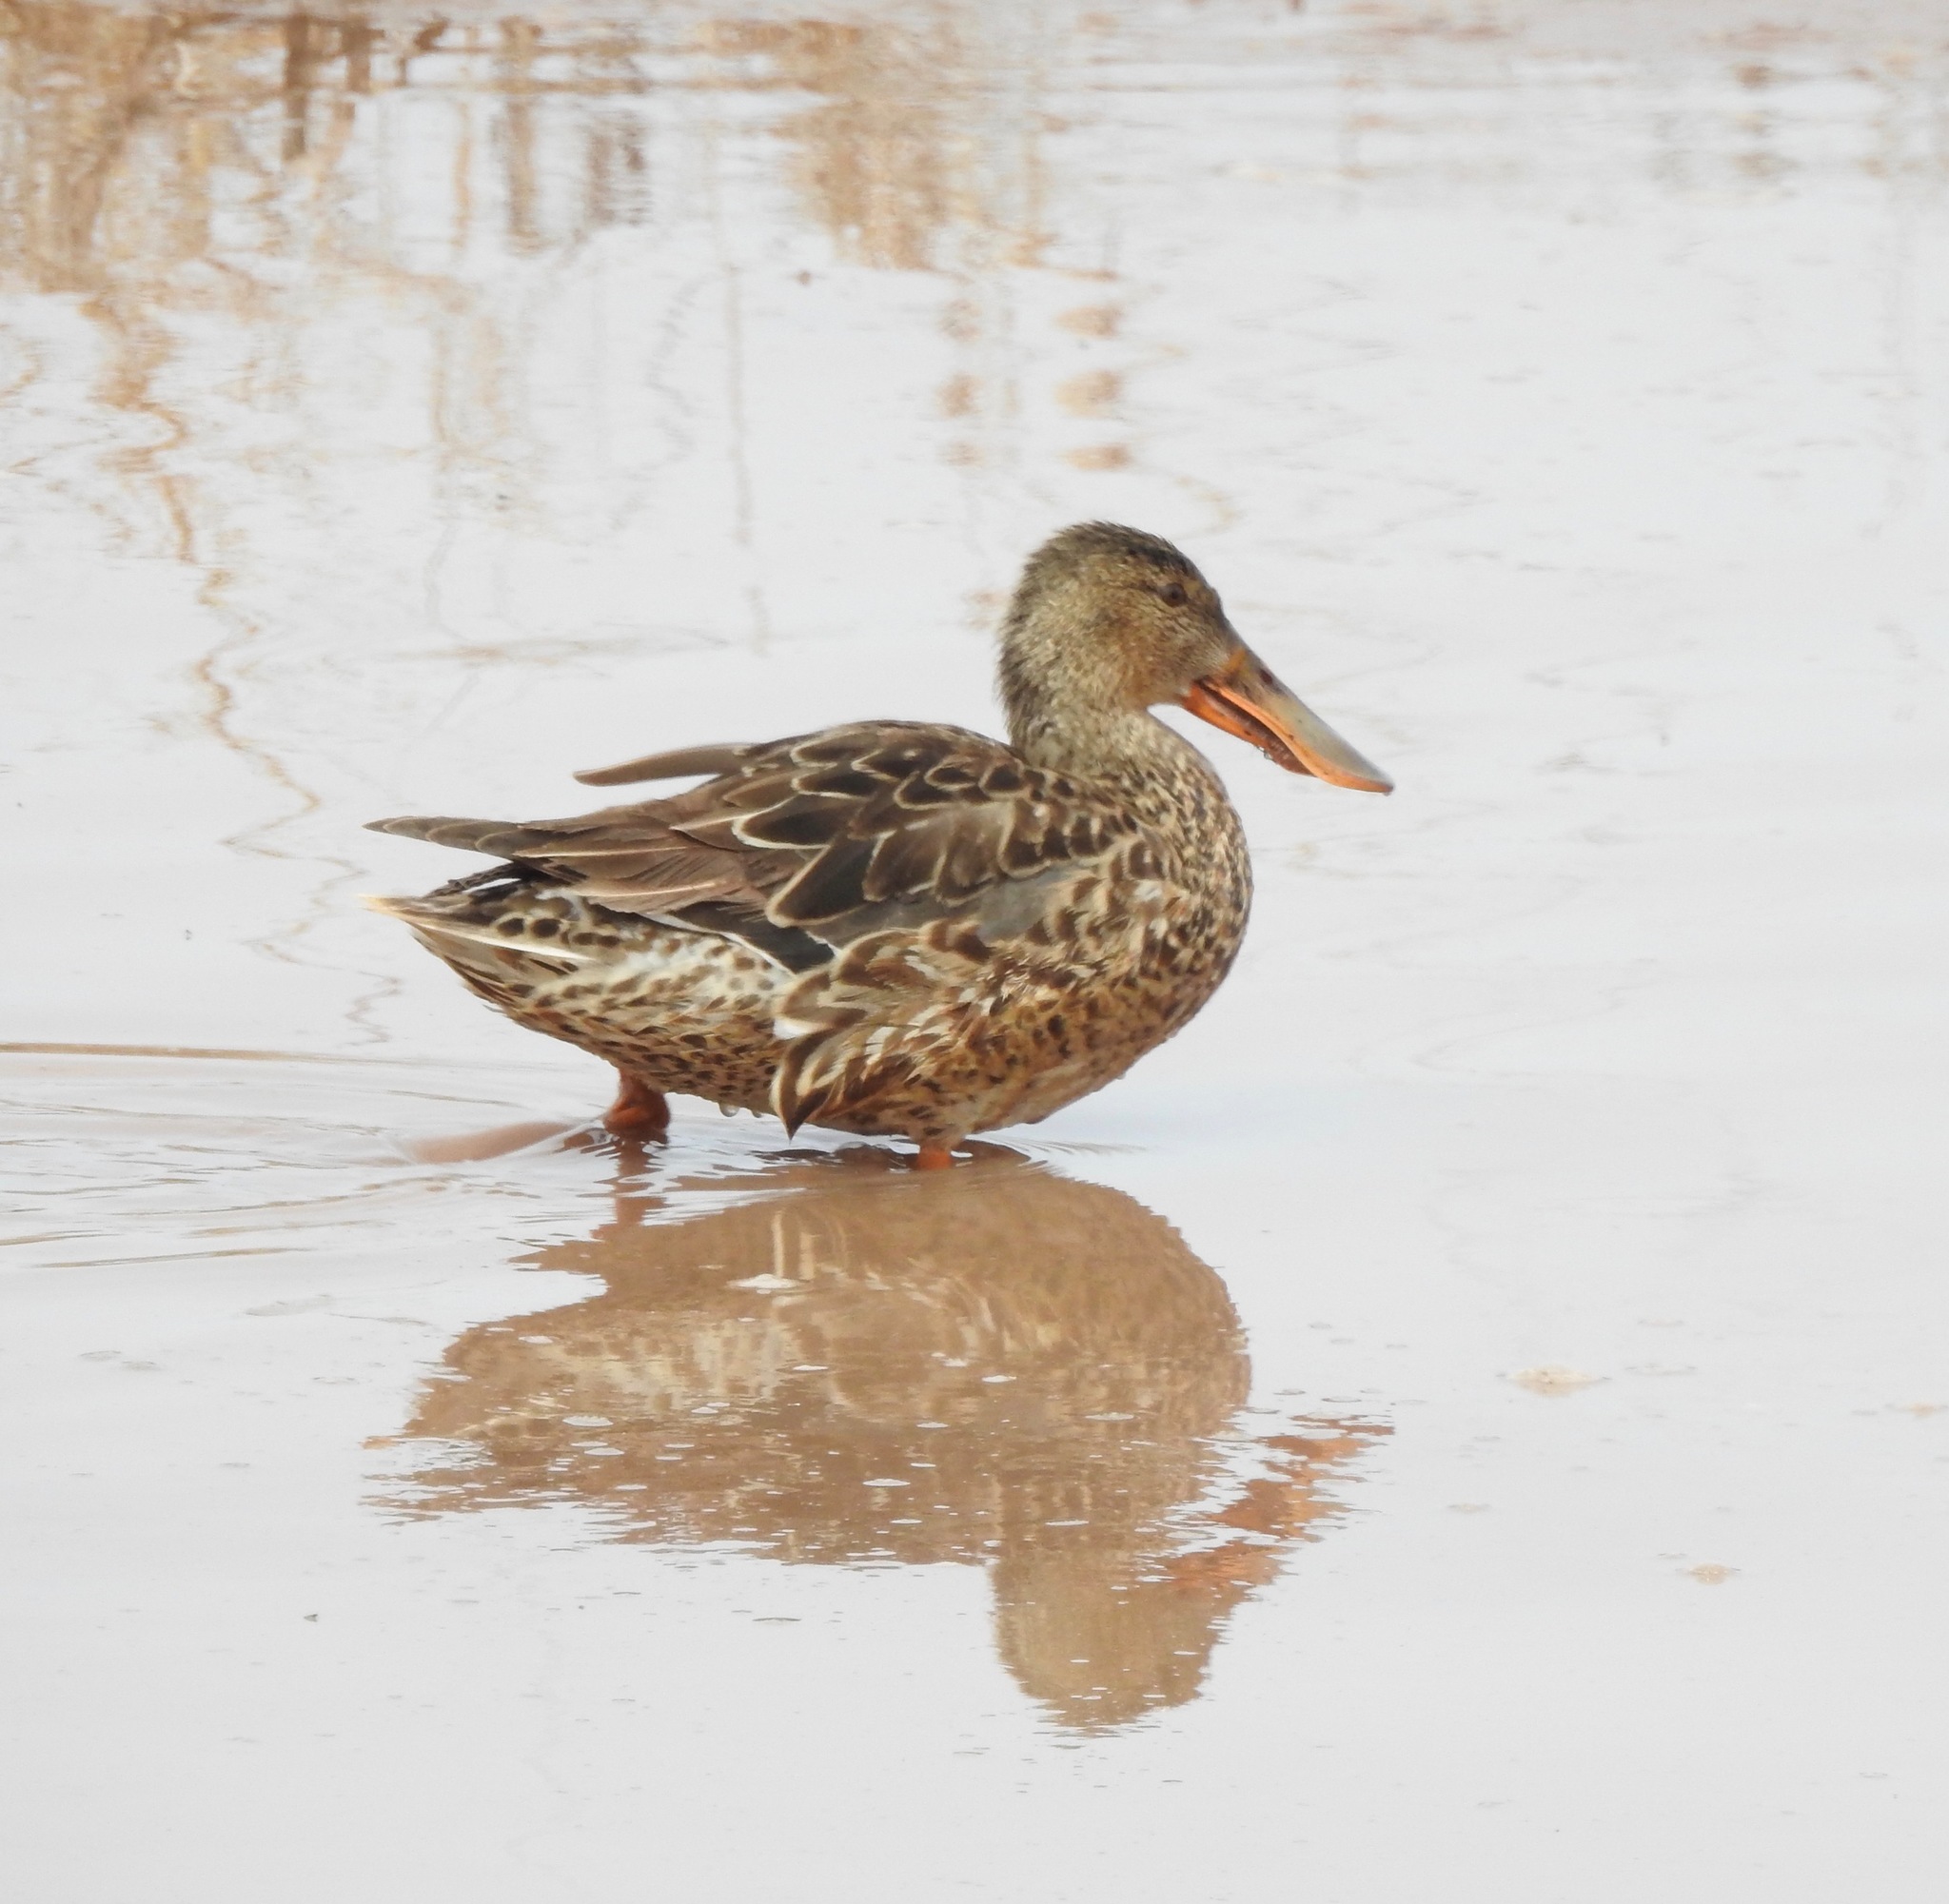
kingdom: Animalia
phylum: Chordata
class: Aves
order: Anseriformes
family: Anatidae
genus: Spatula
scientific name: Spatula clypeata
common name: Northern shoveler
